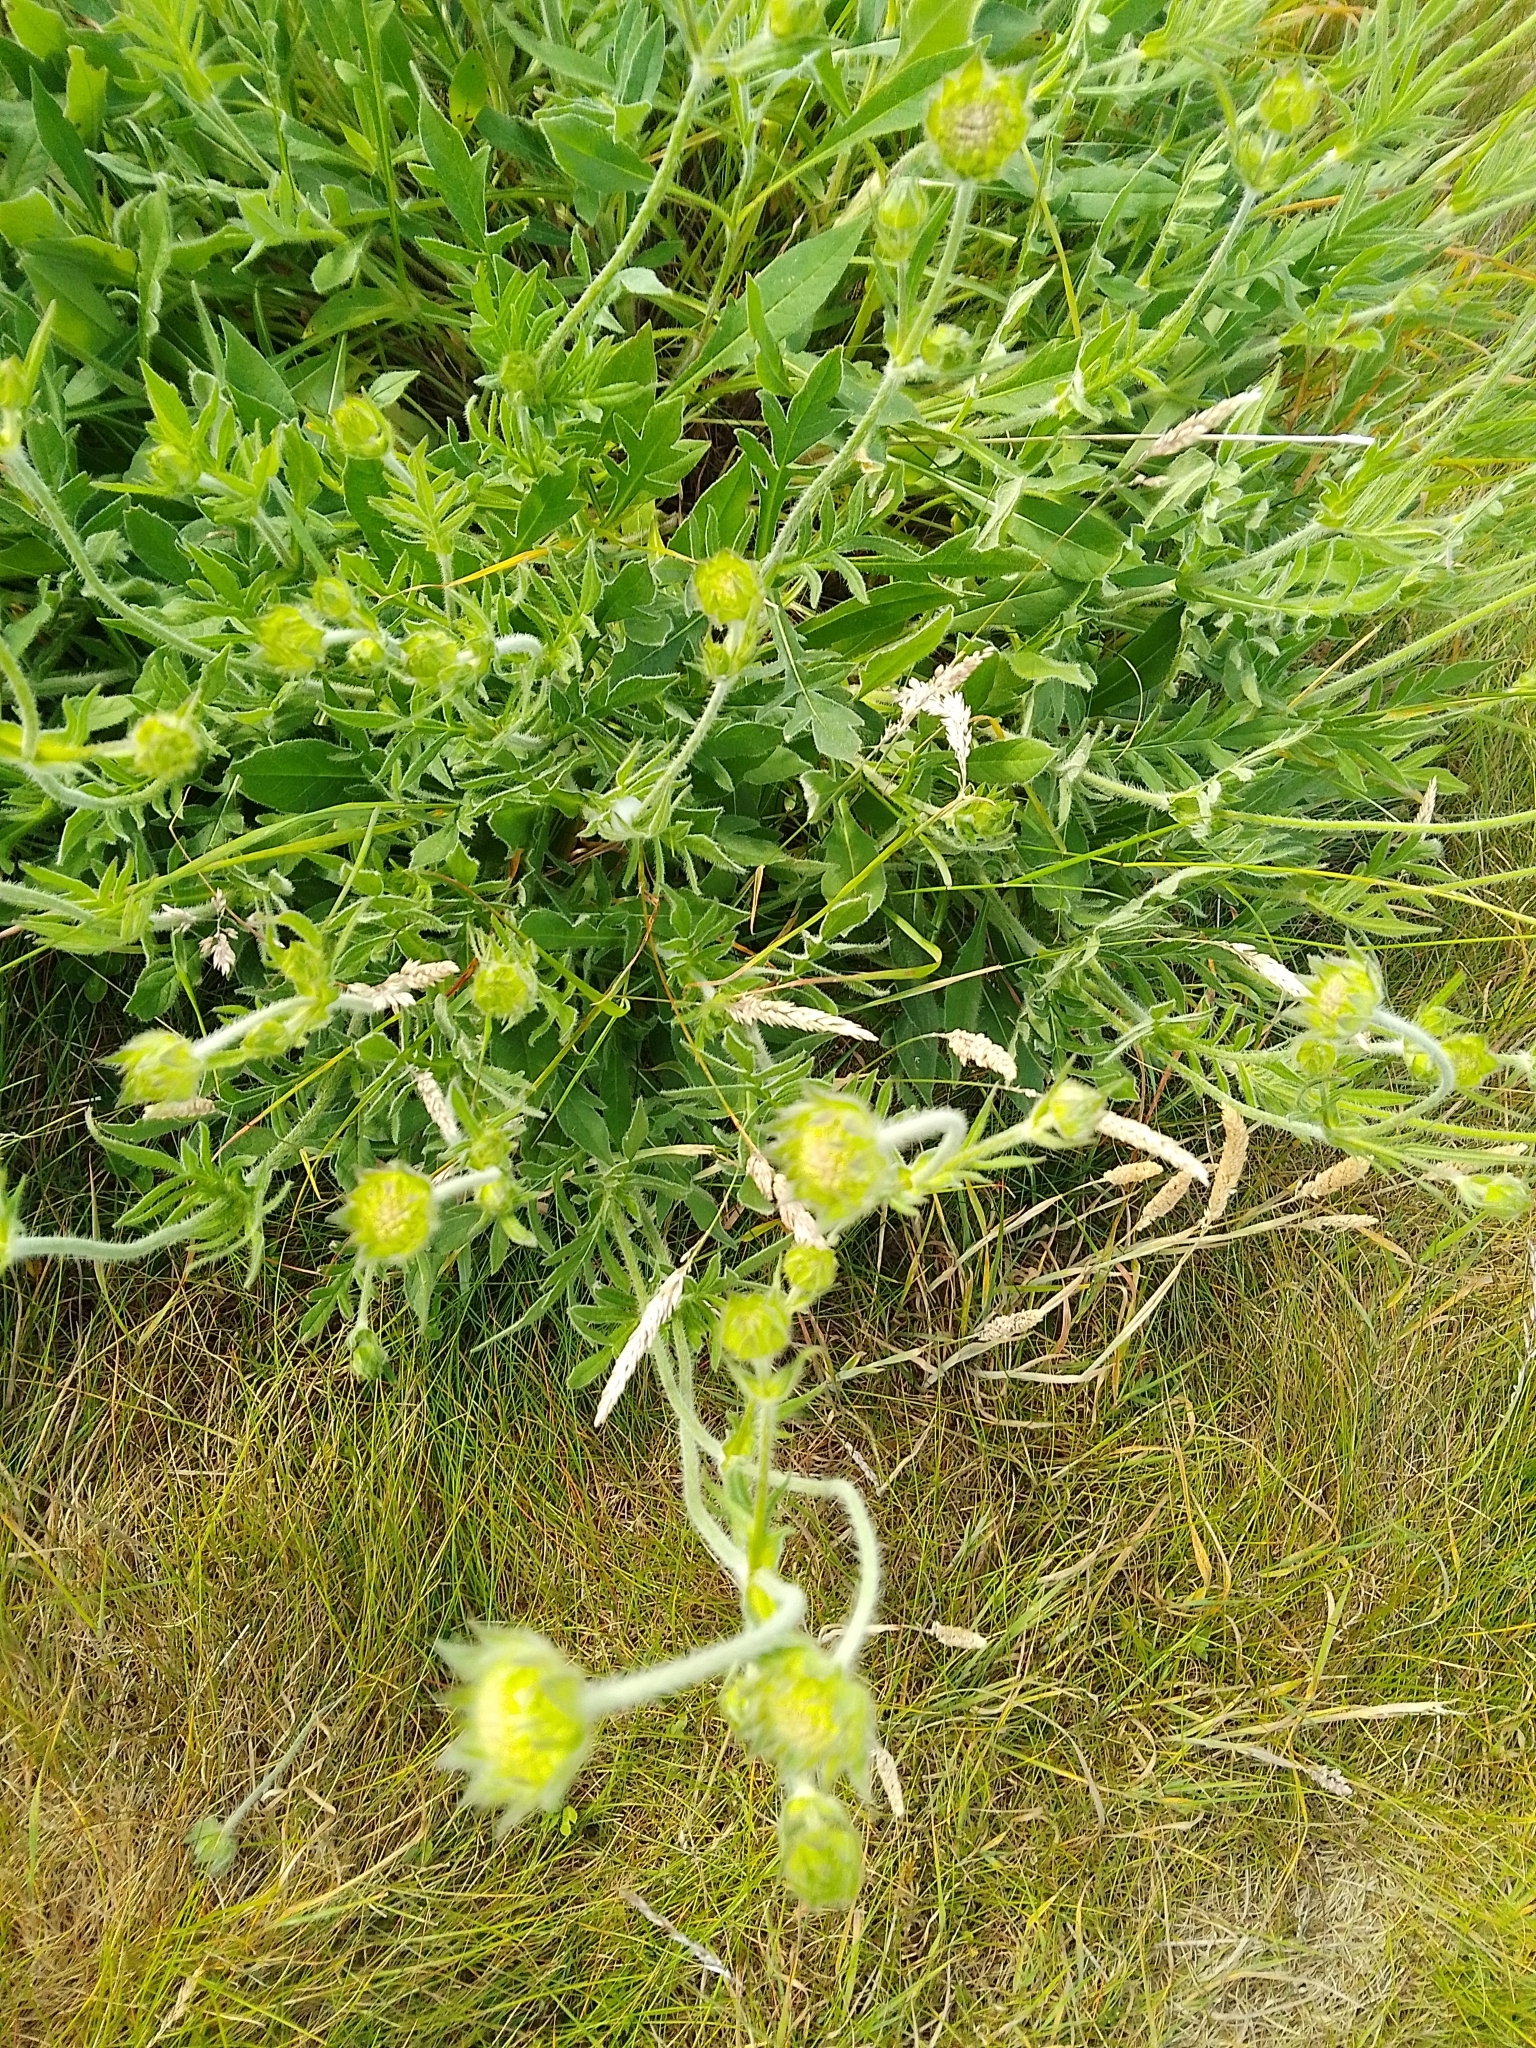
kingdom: Plantae
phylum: Tracheophyta
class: Magnoliopsida
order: Dipsacales
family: Caprifoliaceae
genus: Knautia
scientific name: Knautia arvensis
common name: Field scabiosa
